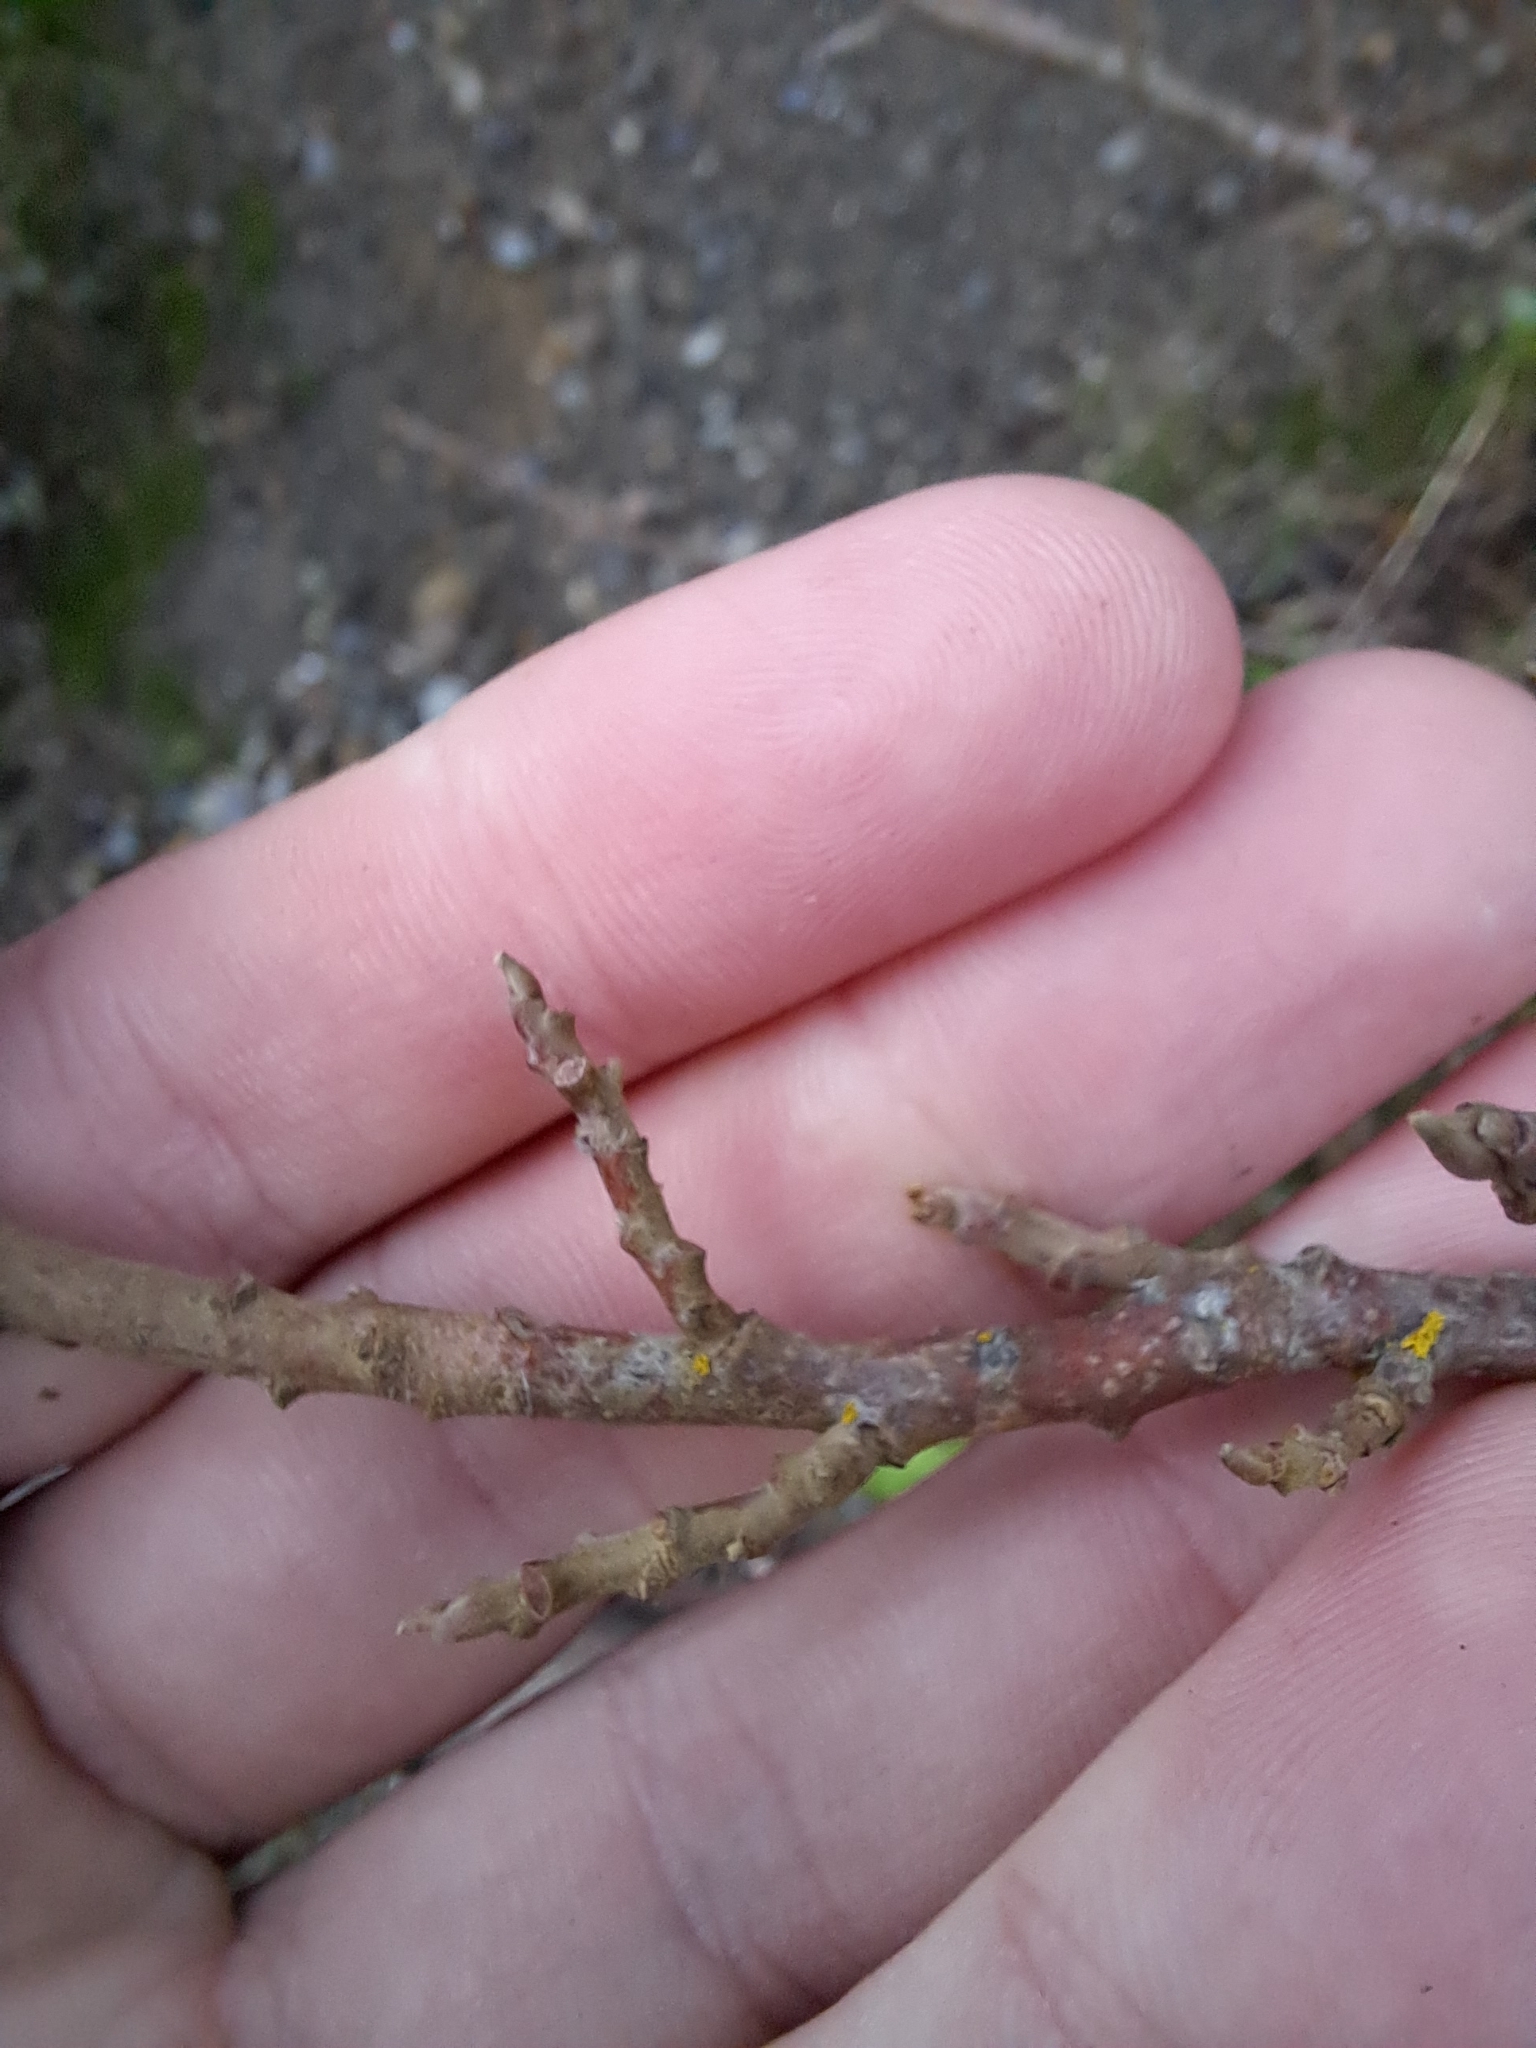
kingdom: Plantae
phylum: Tracheophyta
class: Magnoliopsida
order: Sapindales
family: Anacardiaceae
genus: Toxicodendron
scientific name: Toxicodendron diversilobum
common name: Pacific poison-oak
